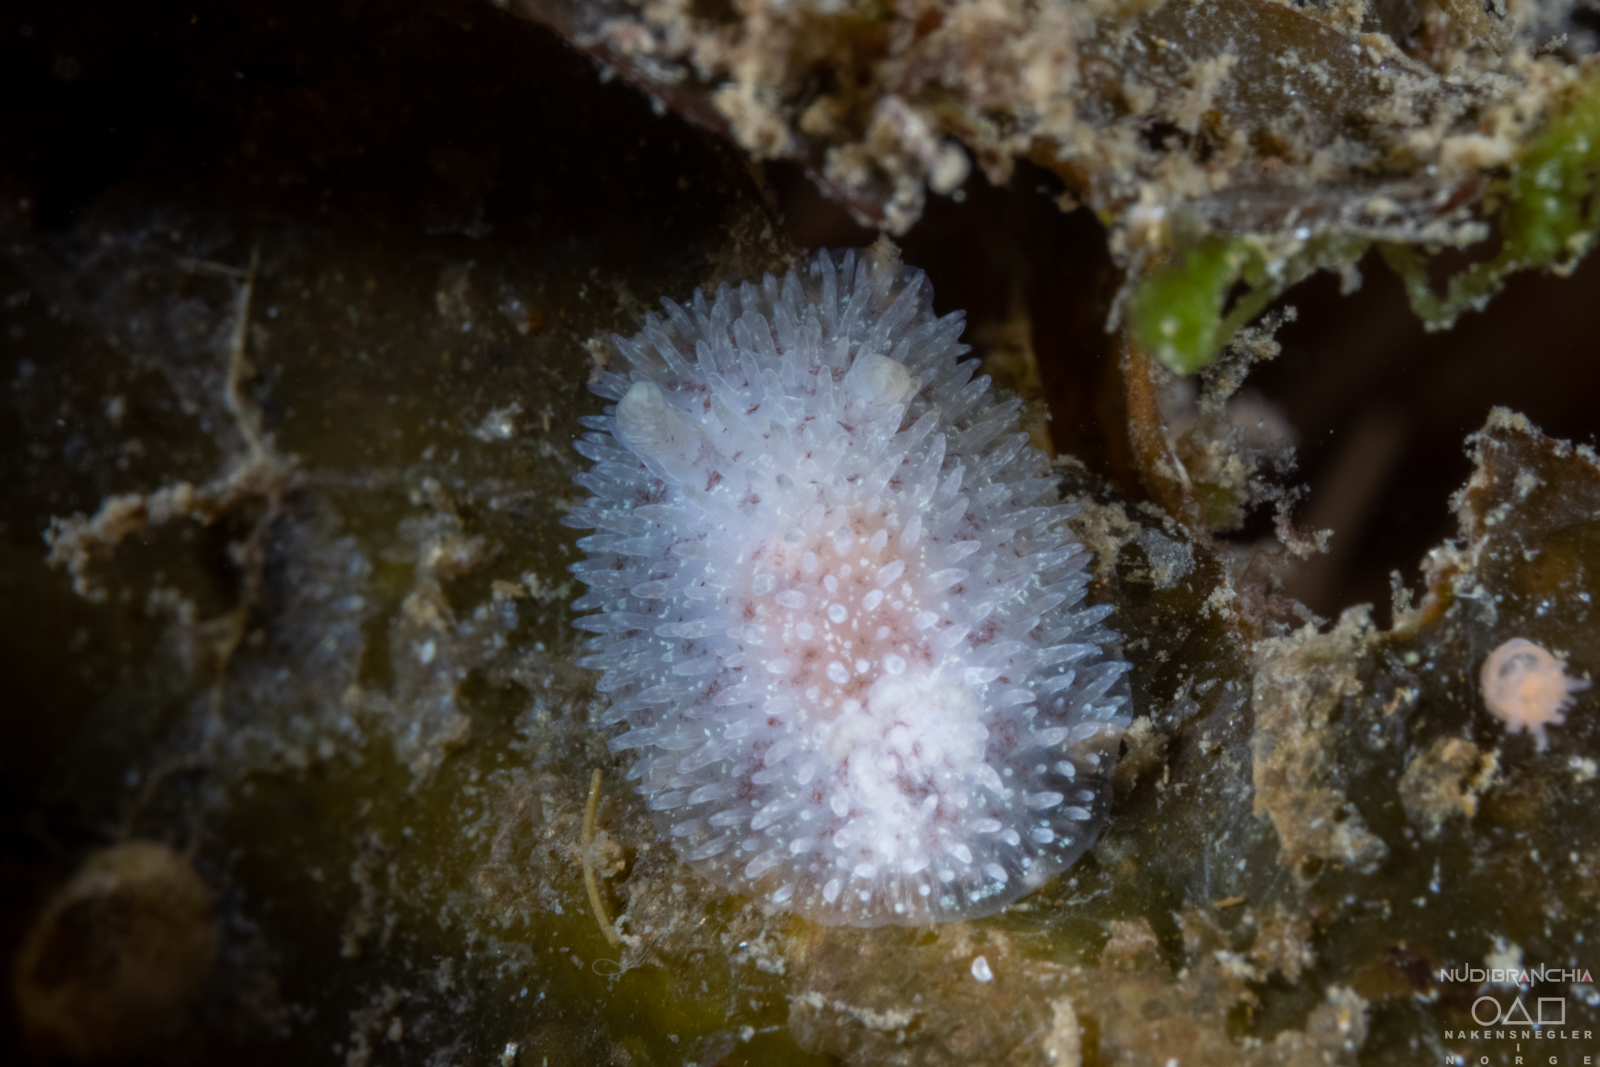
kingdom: Animalia
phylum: Mollusca
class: Gastropoda
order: Nudibranchia
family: Onchidorididae
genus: Acanthodoris
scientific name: Acanthodoris pilosa
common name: Hairy spiny doris
